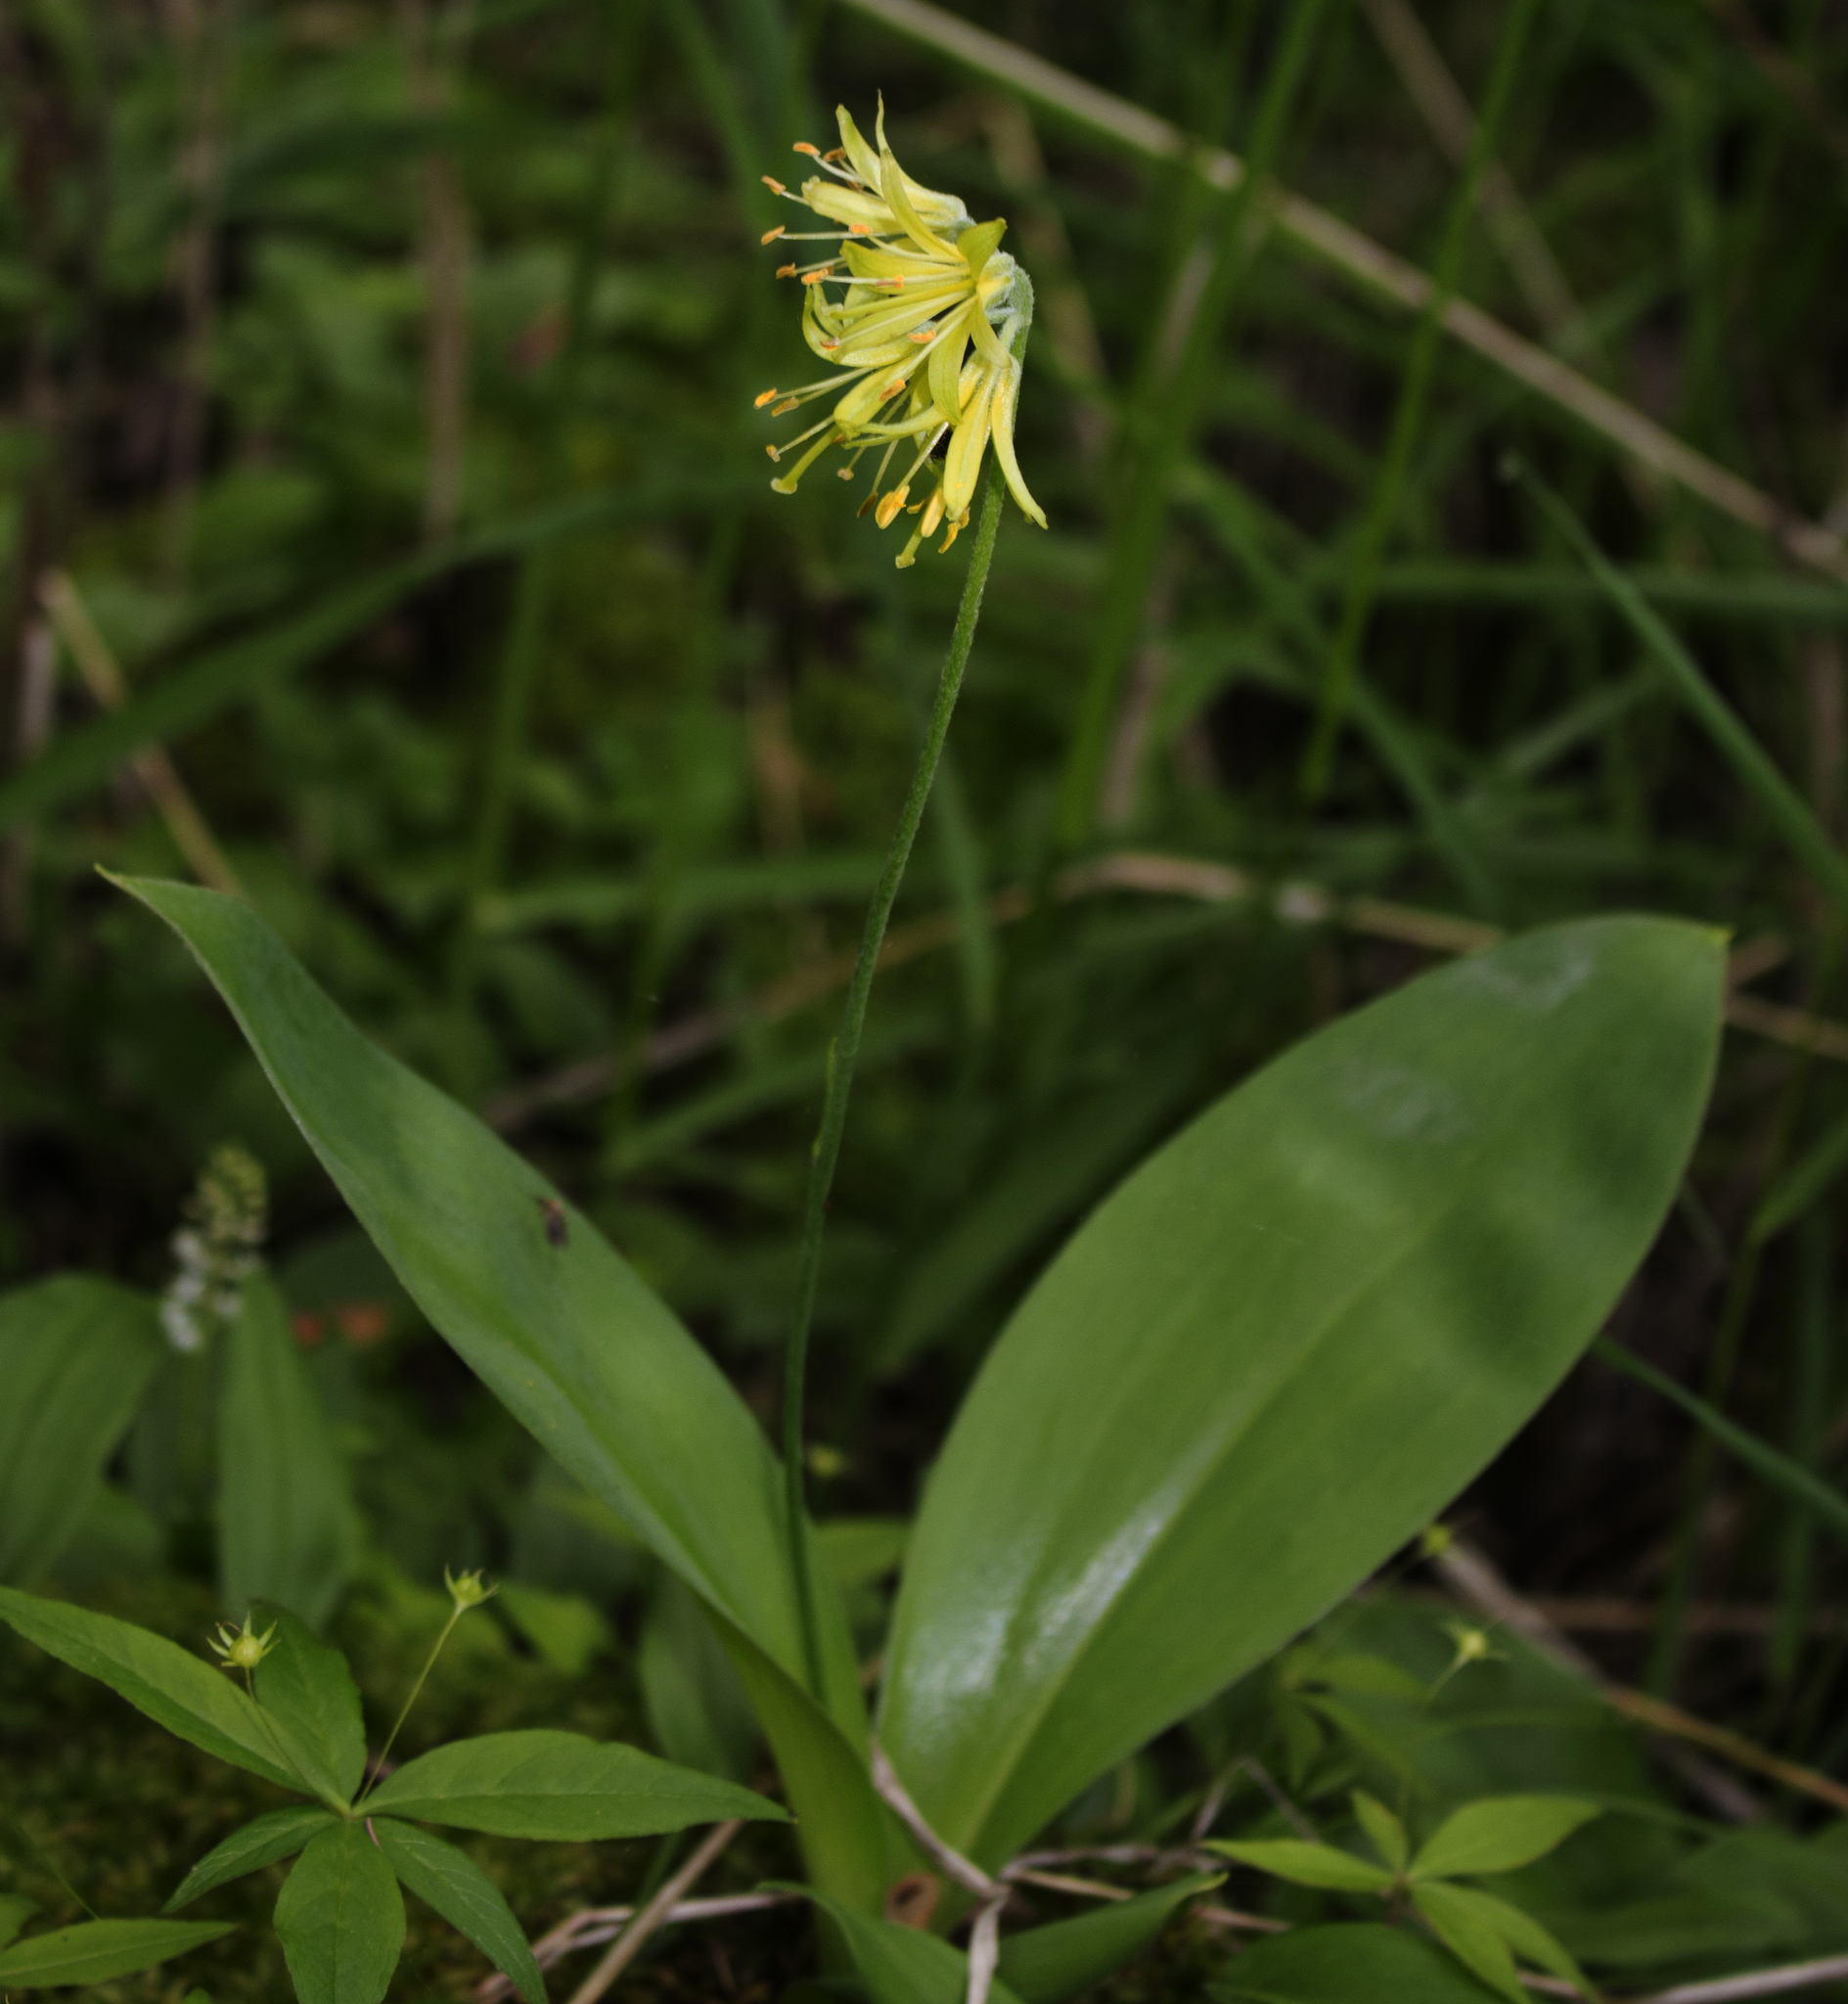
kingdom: Plantae
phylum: Tracheophyta
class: Liliopsida
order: Liliales
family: Liliaceae
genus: Clintonia
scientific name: Clintonia borealis
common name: Yellow clintonia
